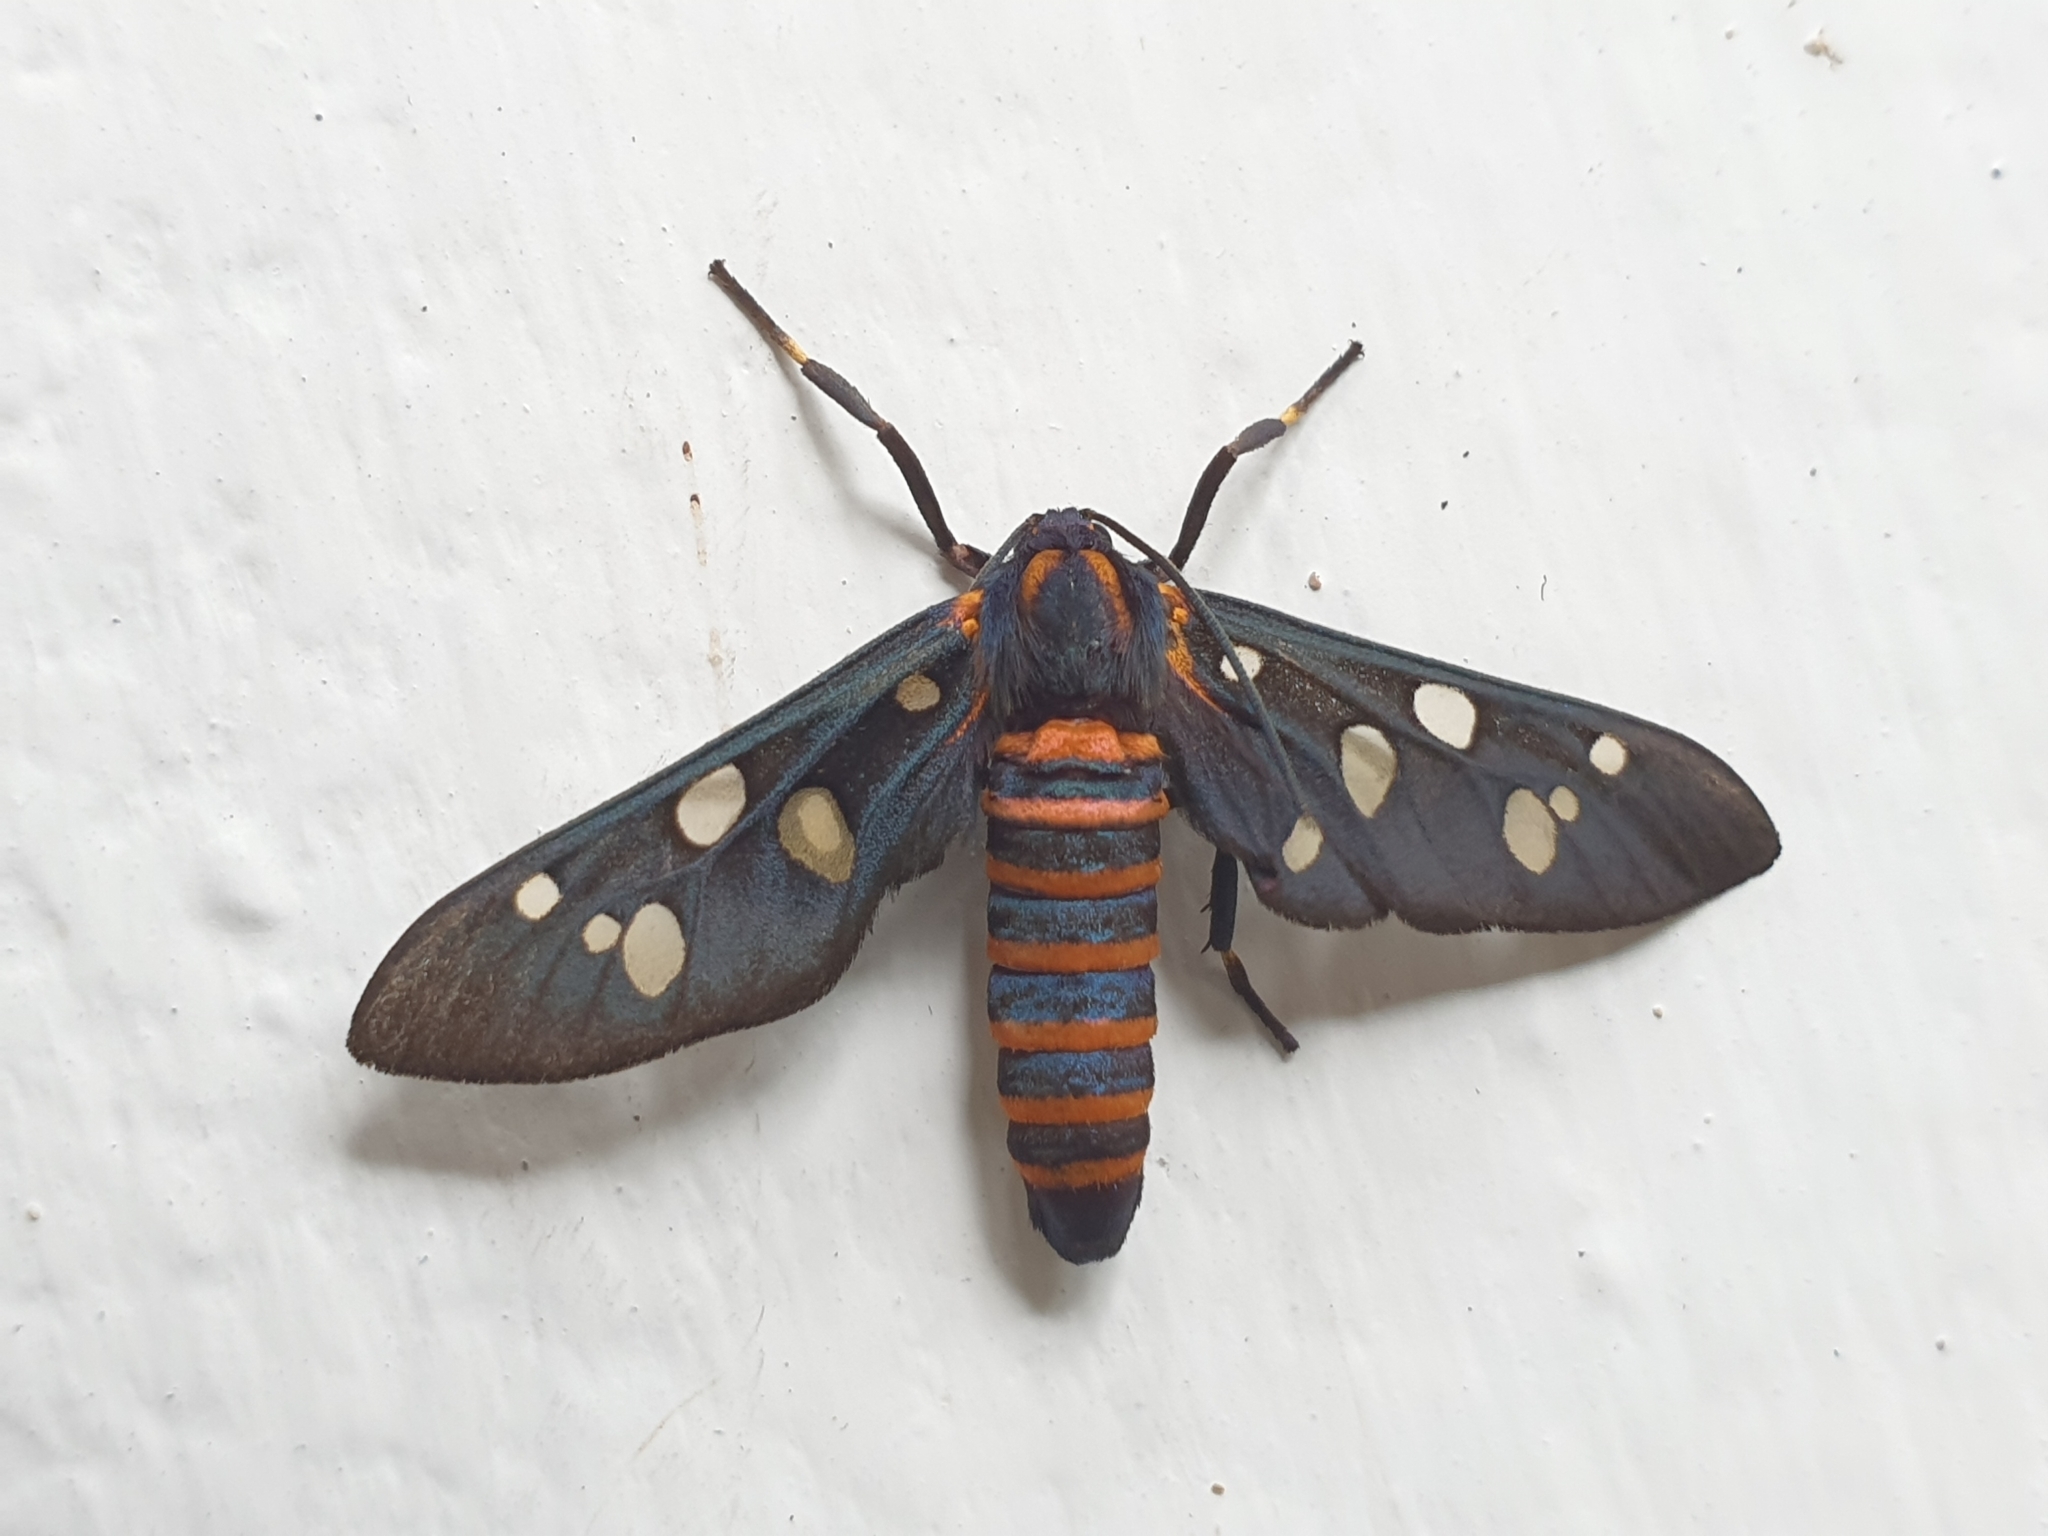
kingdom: Animalia
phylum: Arthropoda
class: Insecta
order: Lepidoptera
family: Erebidae
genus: Amata
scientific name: Amata passalis
